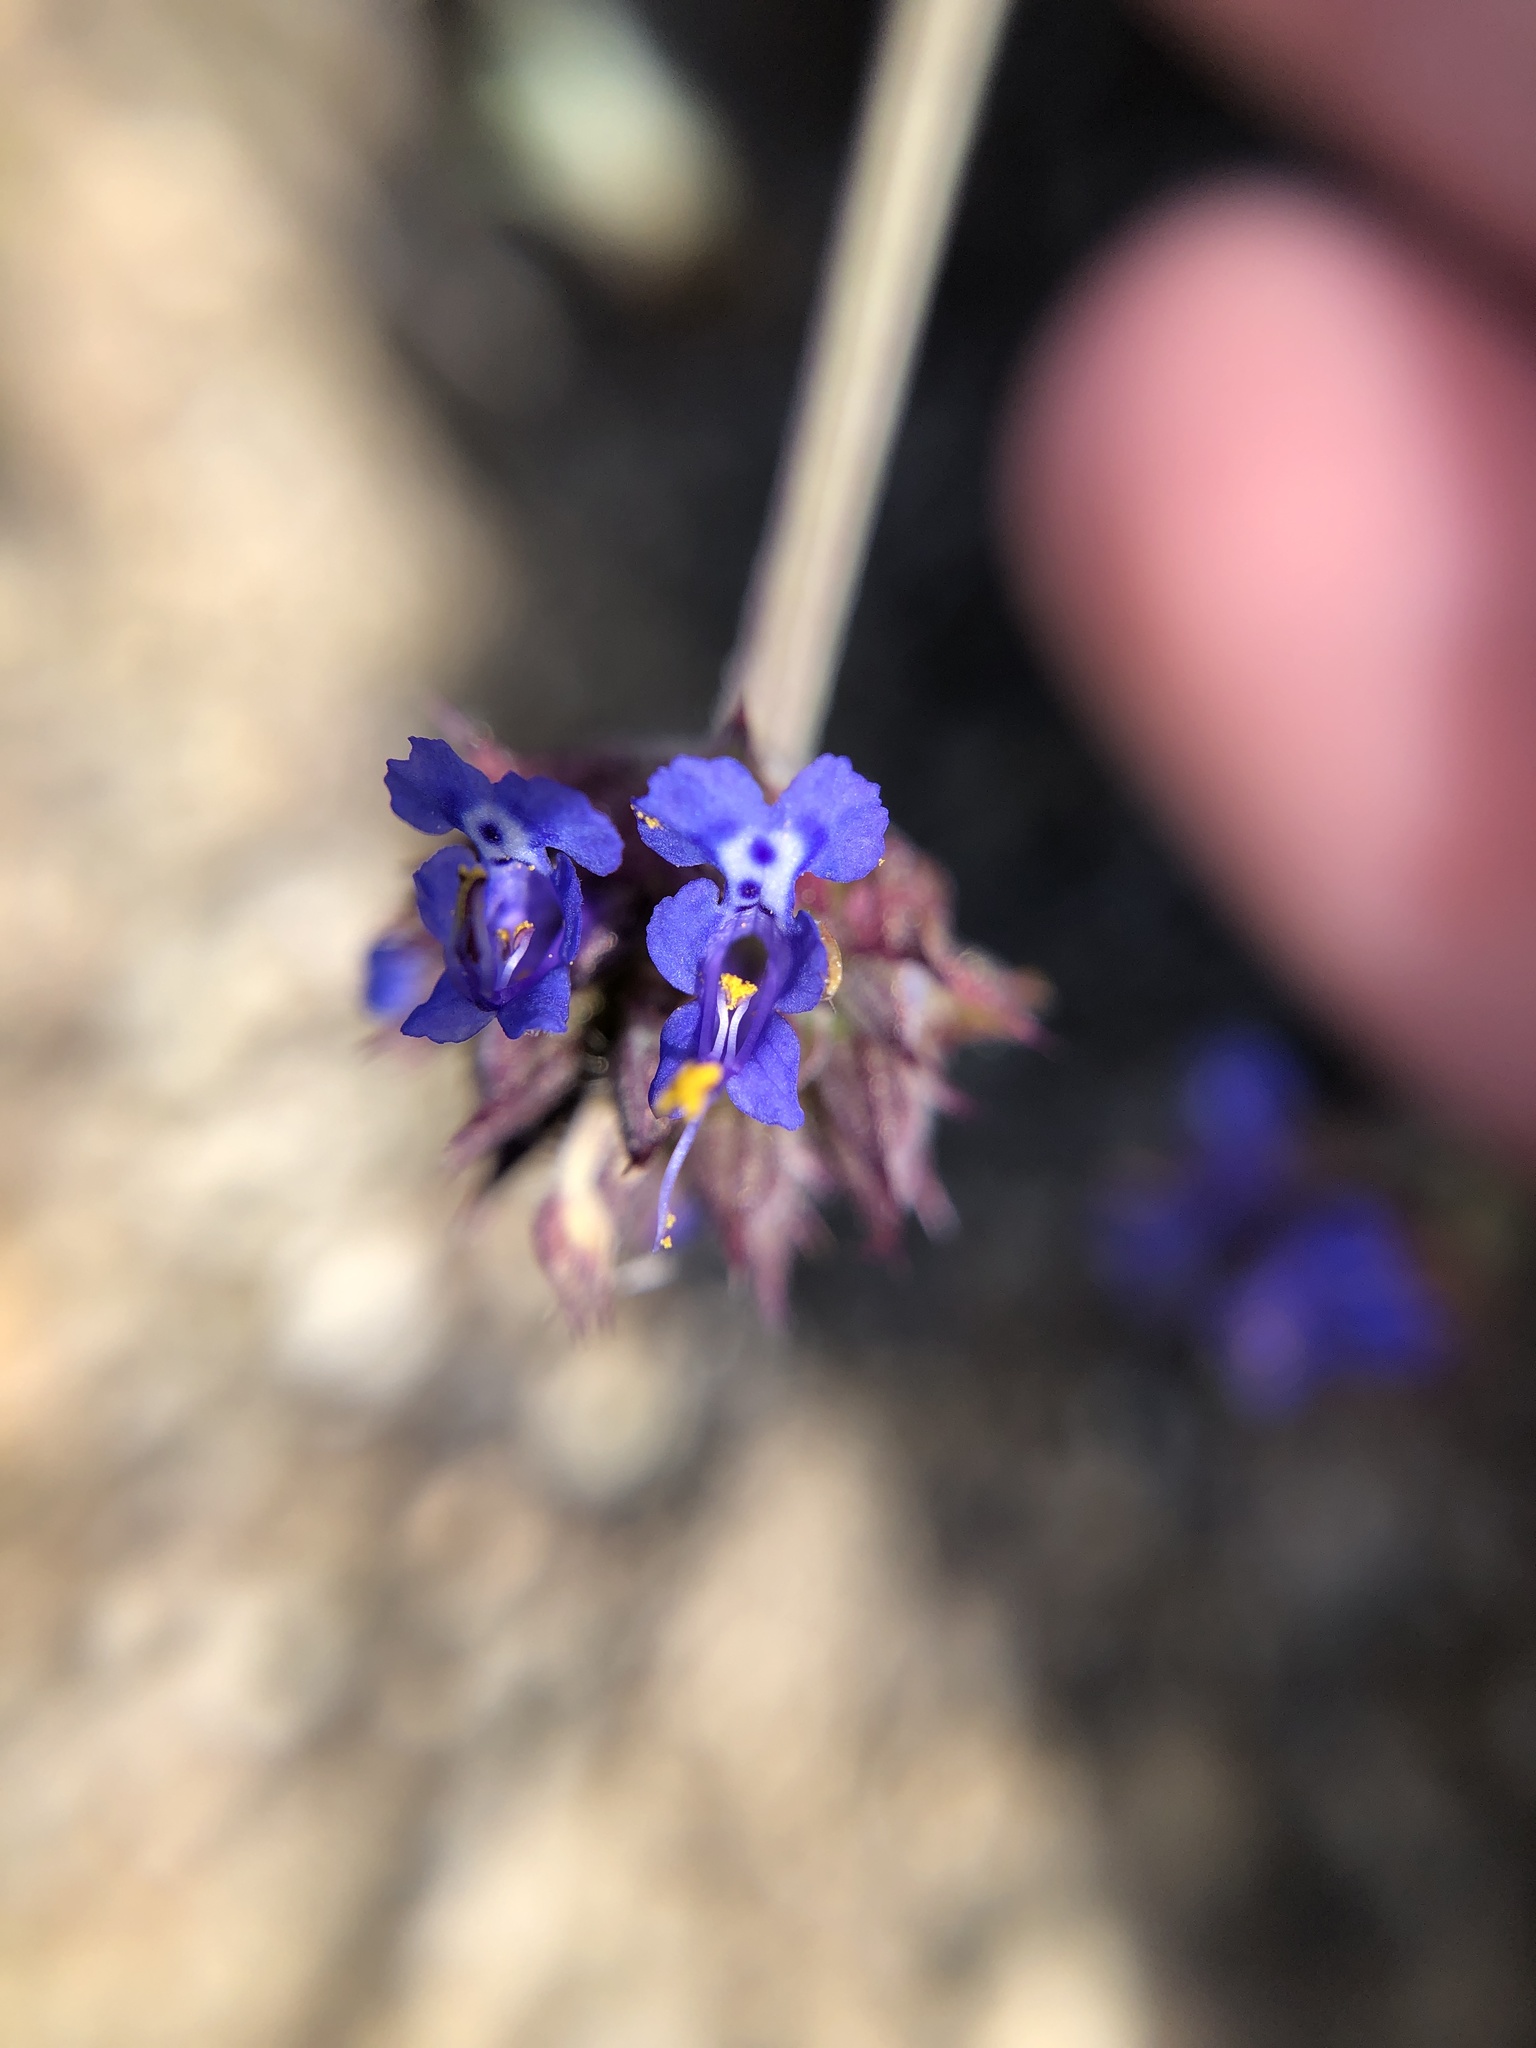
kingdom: Plantae
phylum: Tracheophyta
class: Magnoliopsida
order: Lamiales
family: Lamiaceae
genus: Salvia
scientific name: Salvia columbariae
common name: Chia
